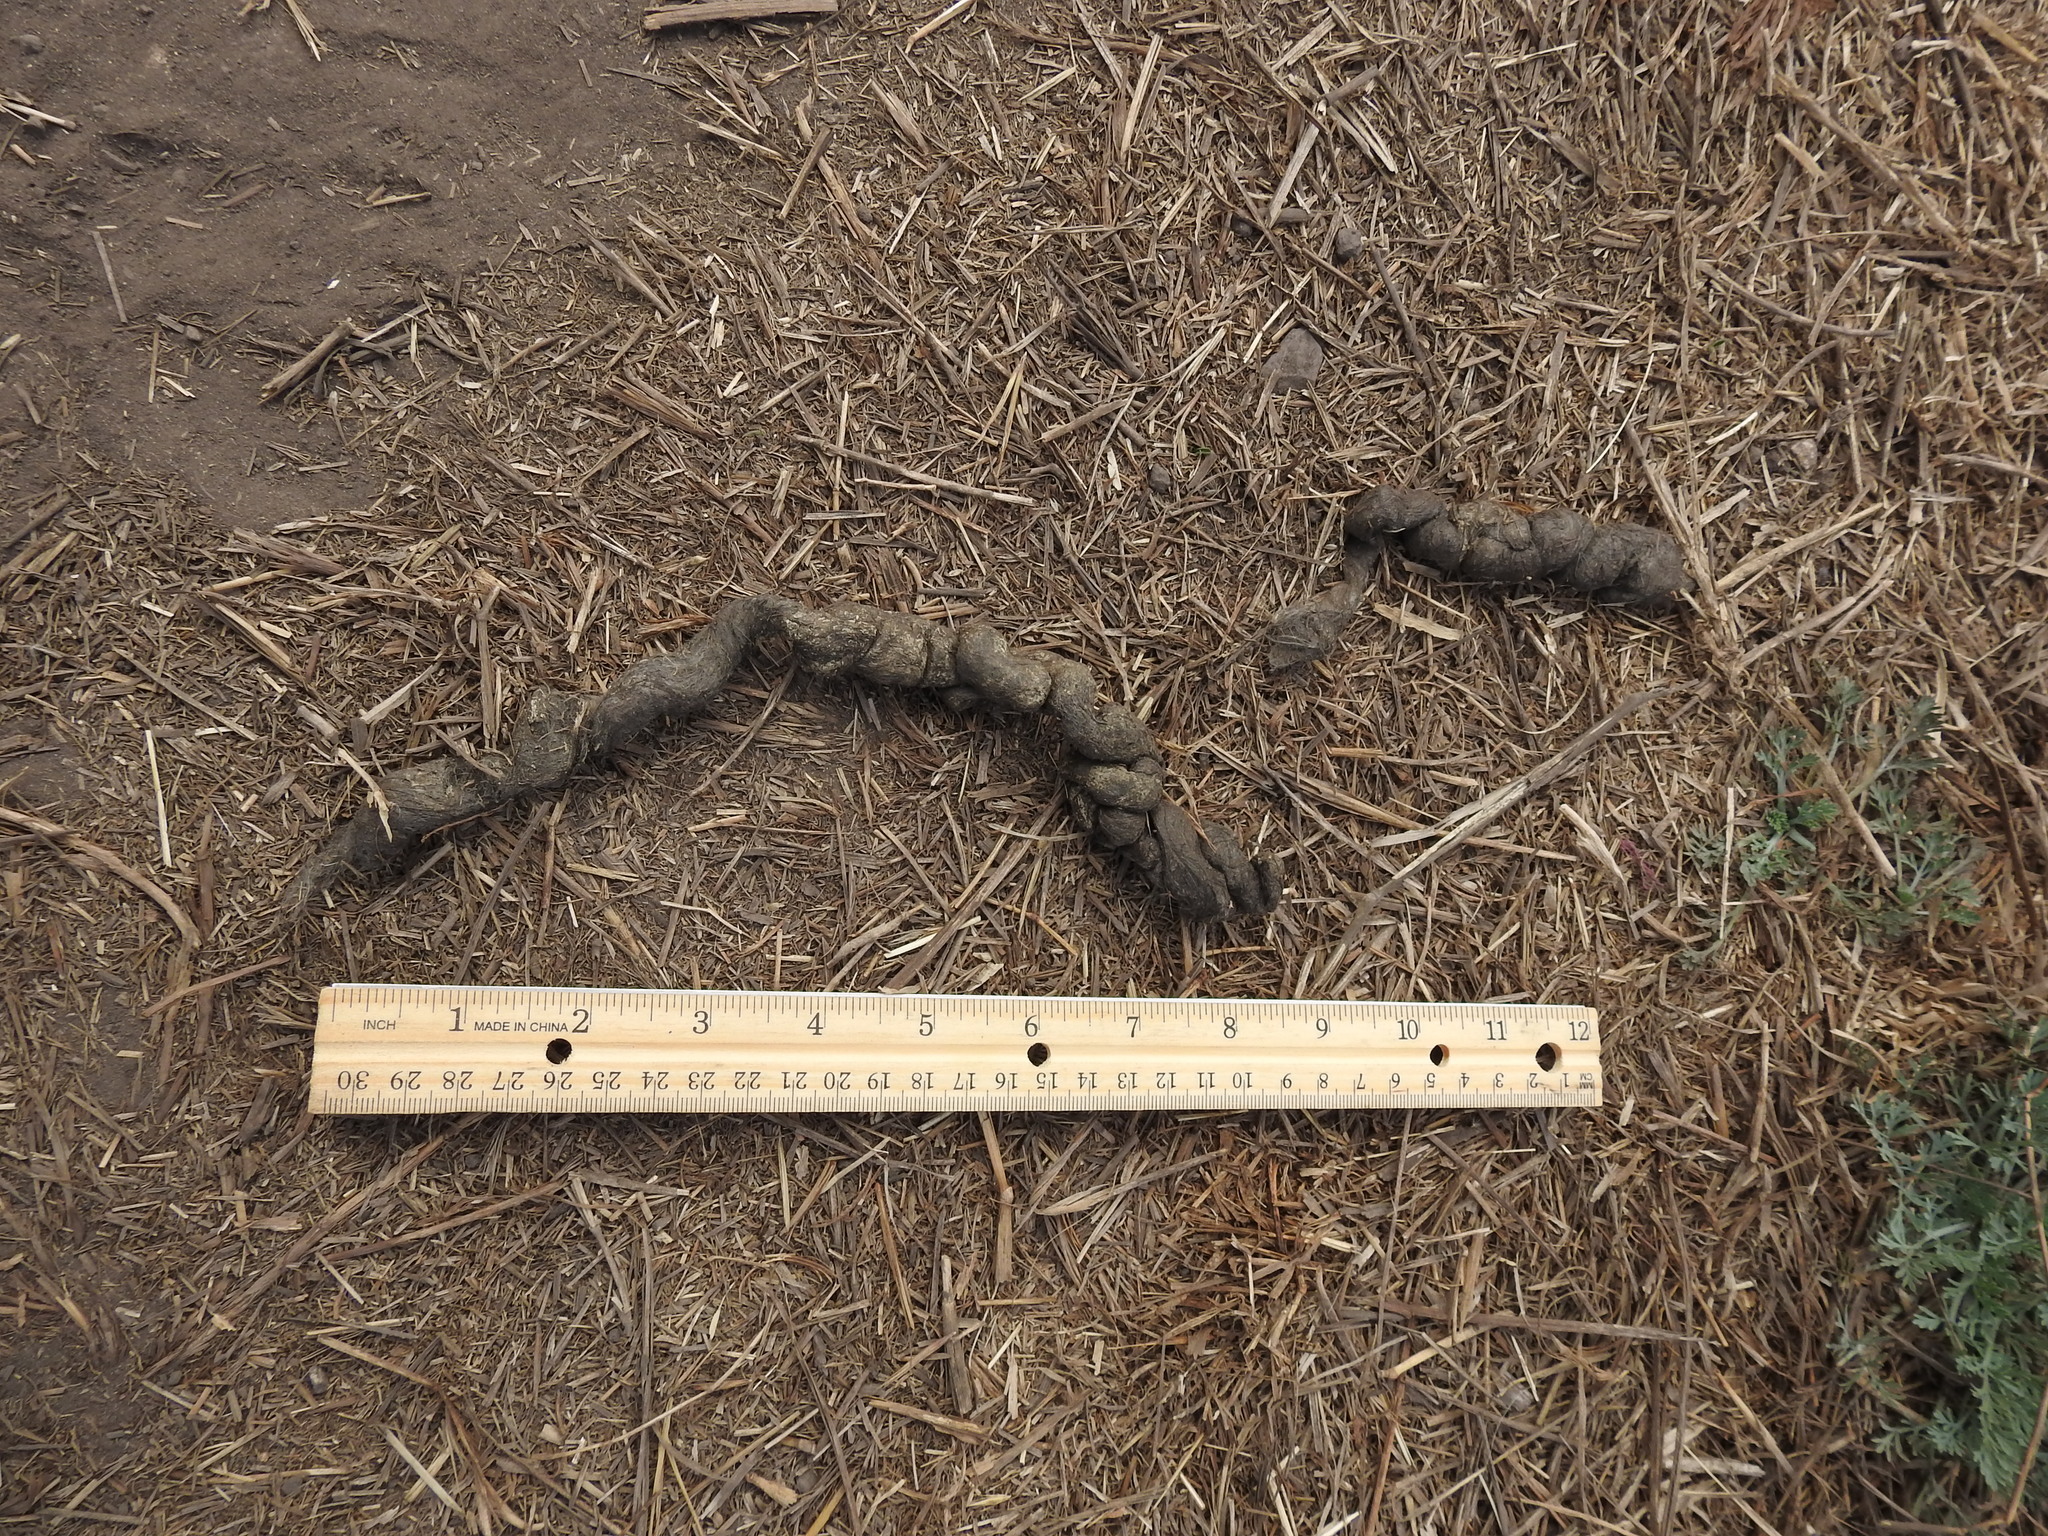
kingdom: Animalia
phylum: Chordata
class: Mammalia
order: Carnivora
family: Canidae
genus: Urocyon
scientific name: Urocyon cinereoargenteus
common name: Gray fox
